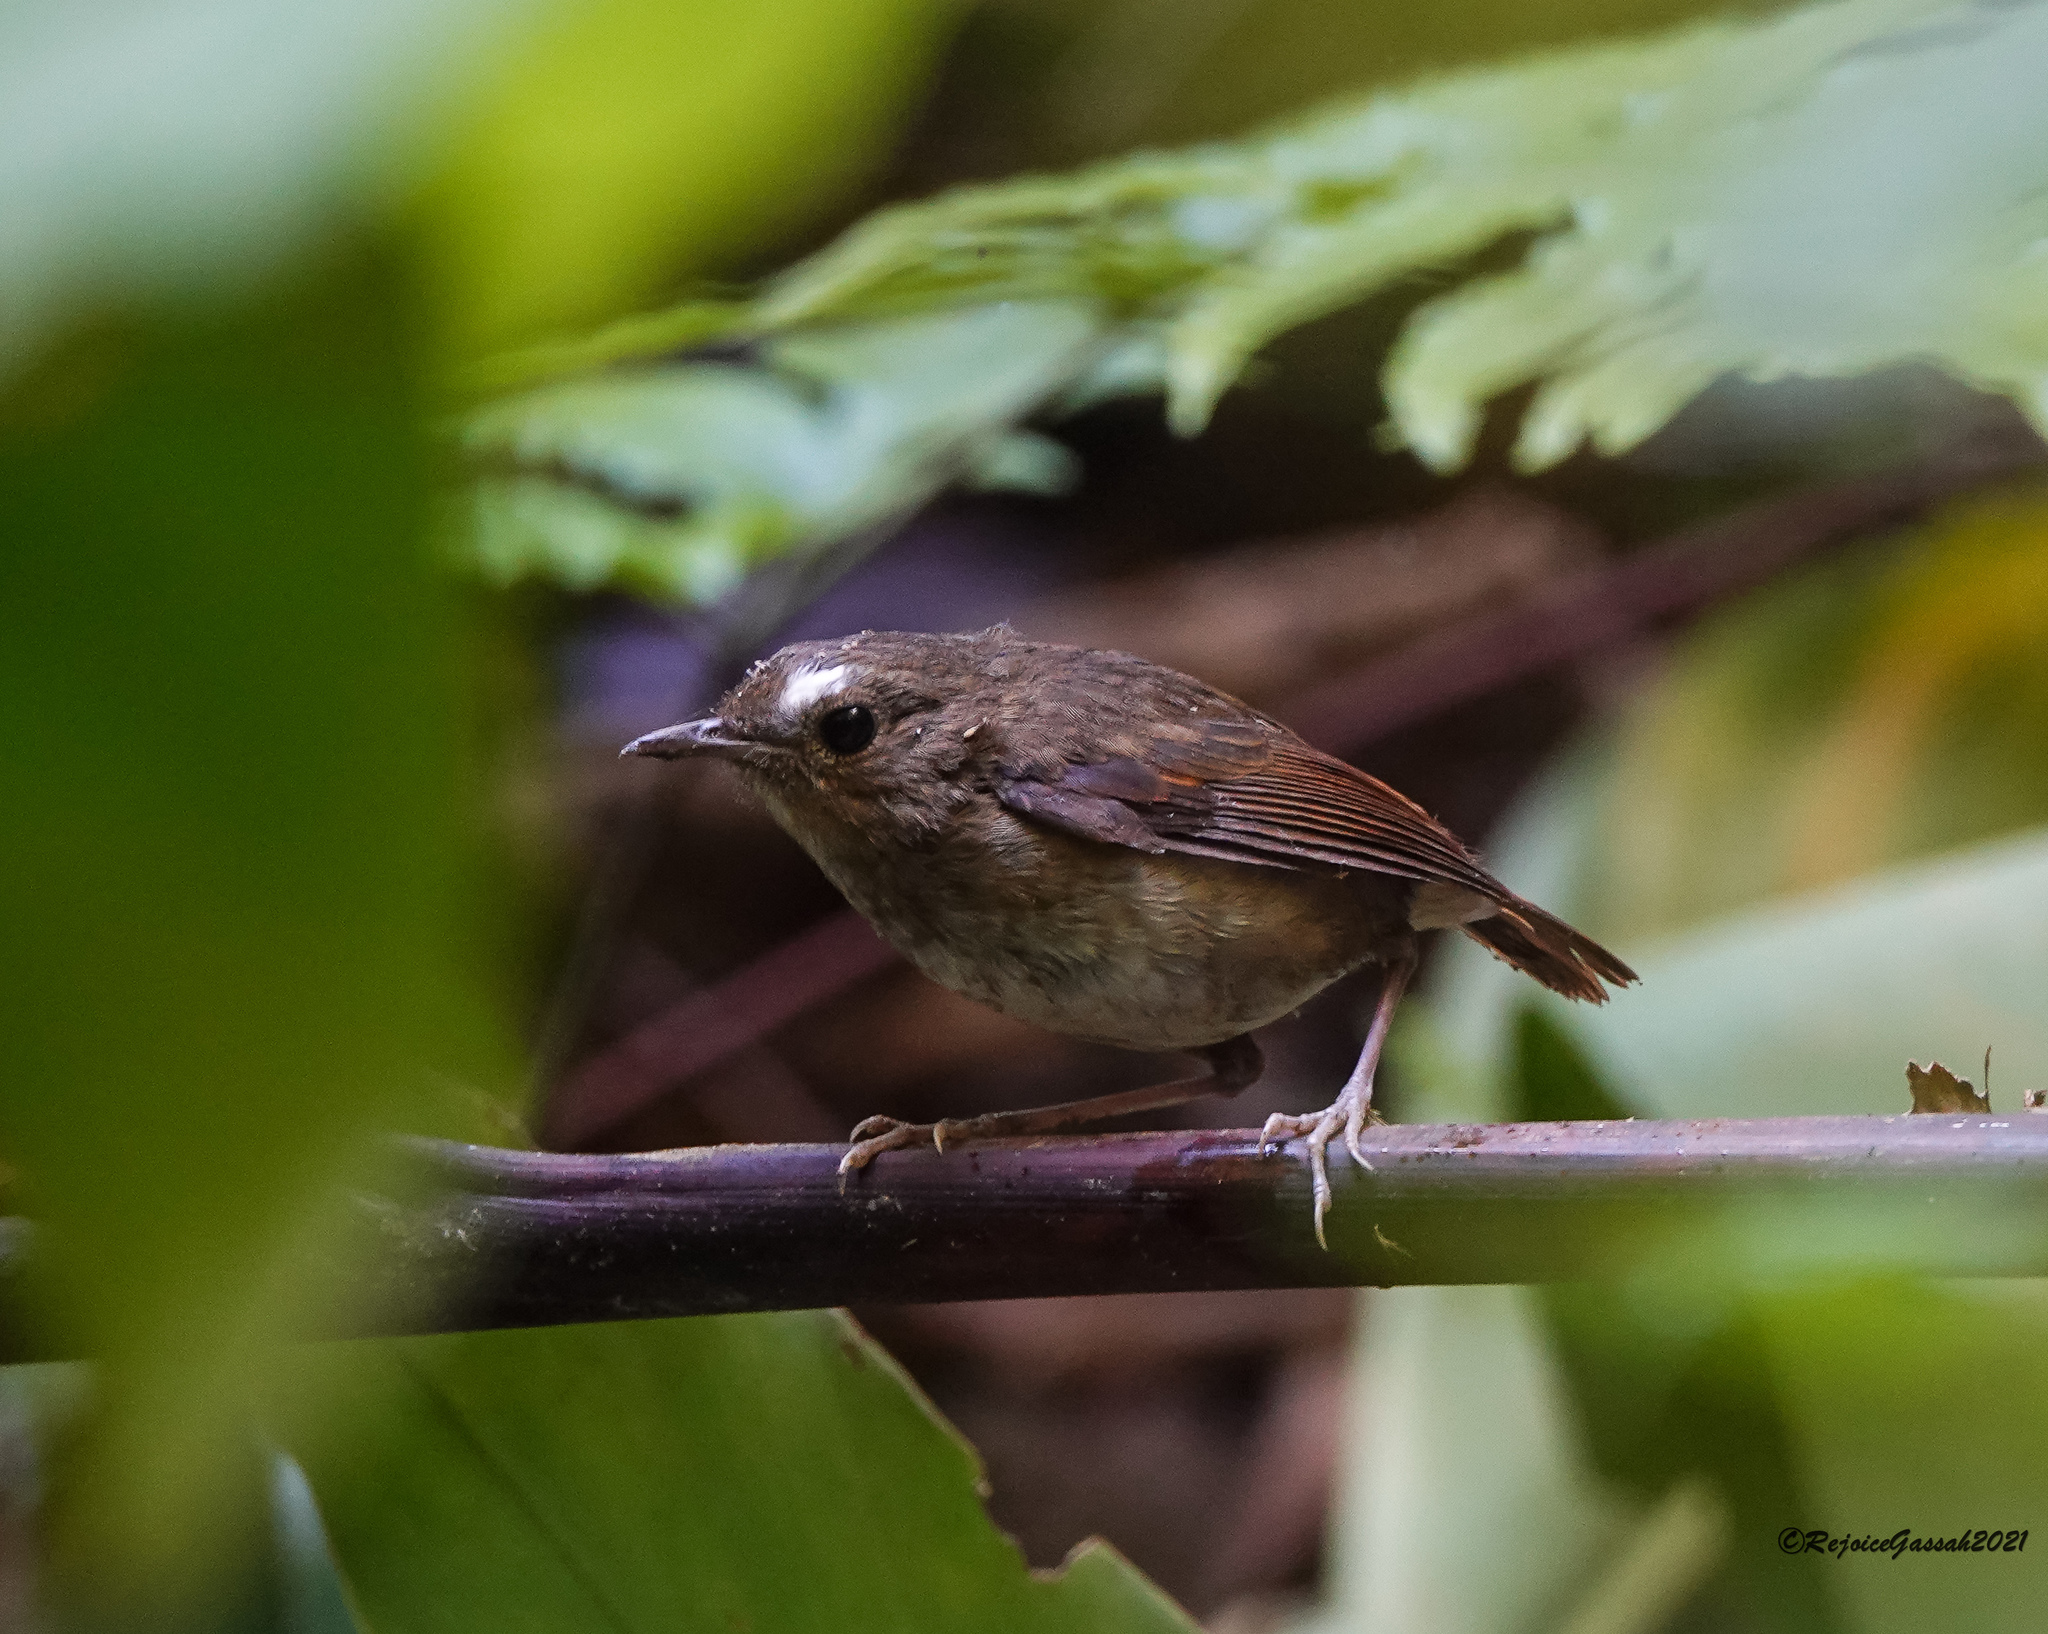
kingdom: Animalia
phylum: Chordata
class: Aves
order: Passeriformes
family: Muscicapidae
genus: Brachypteryx
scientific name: Brachypteryx leucophris
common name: Lesser shortwing
